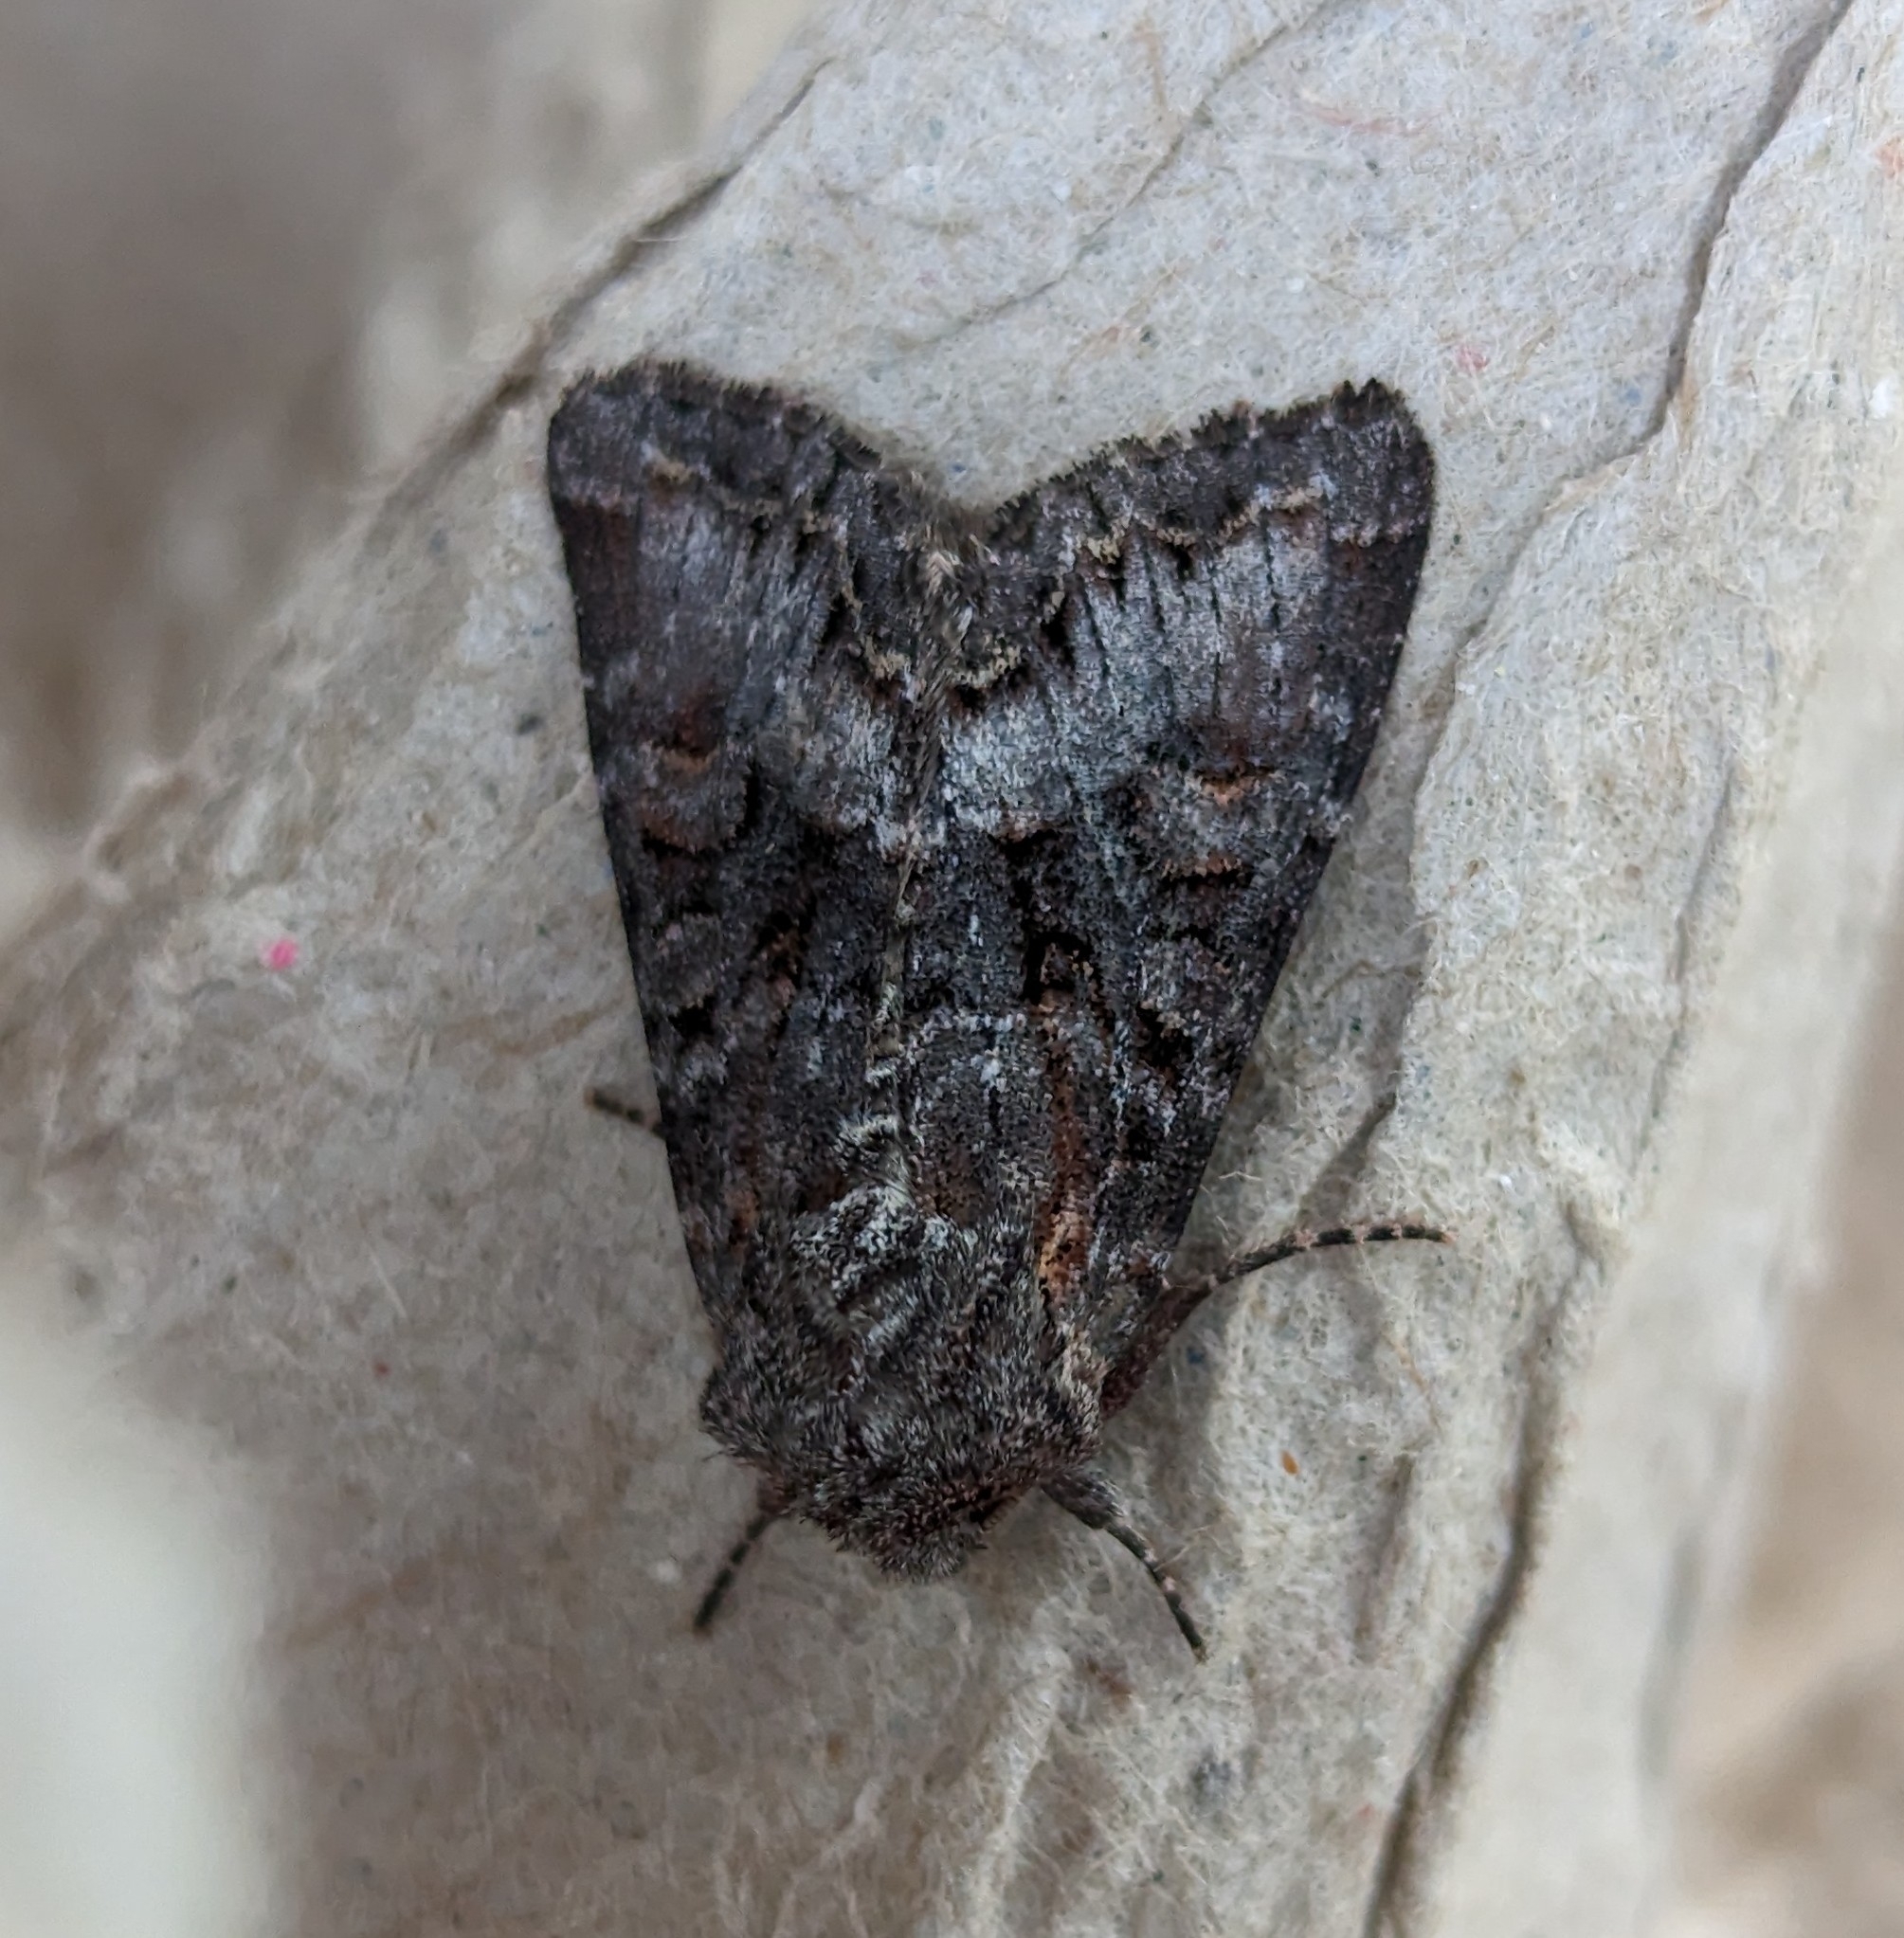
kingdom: Animalia
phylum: Arthropoda
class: Insecta
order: Lepidoptera
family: Noctuidae
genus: Papestra
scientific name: Papestra quadrata
